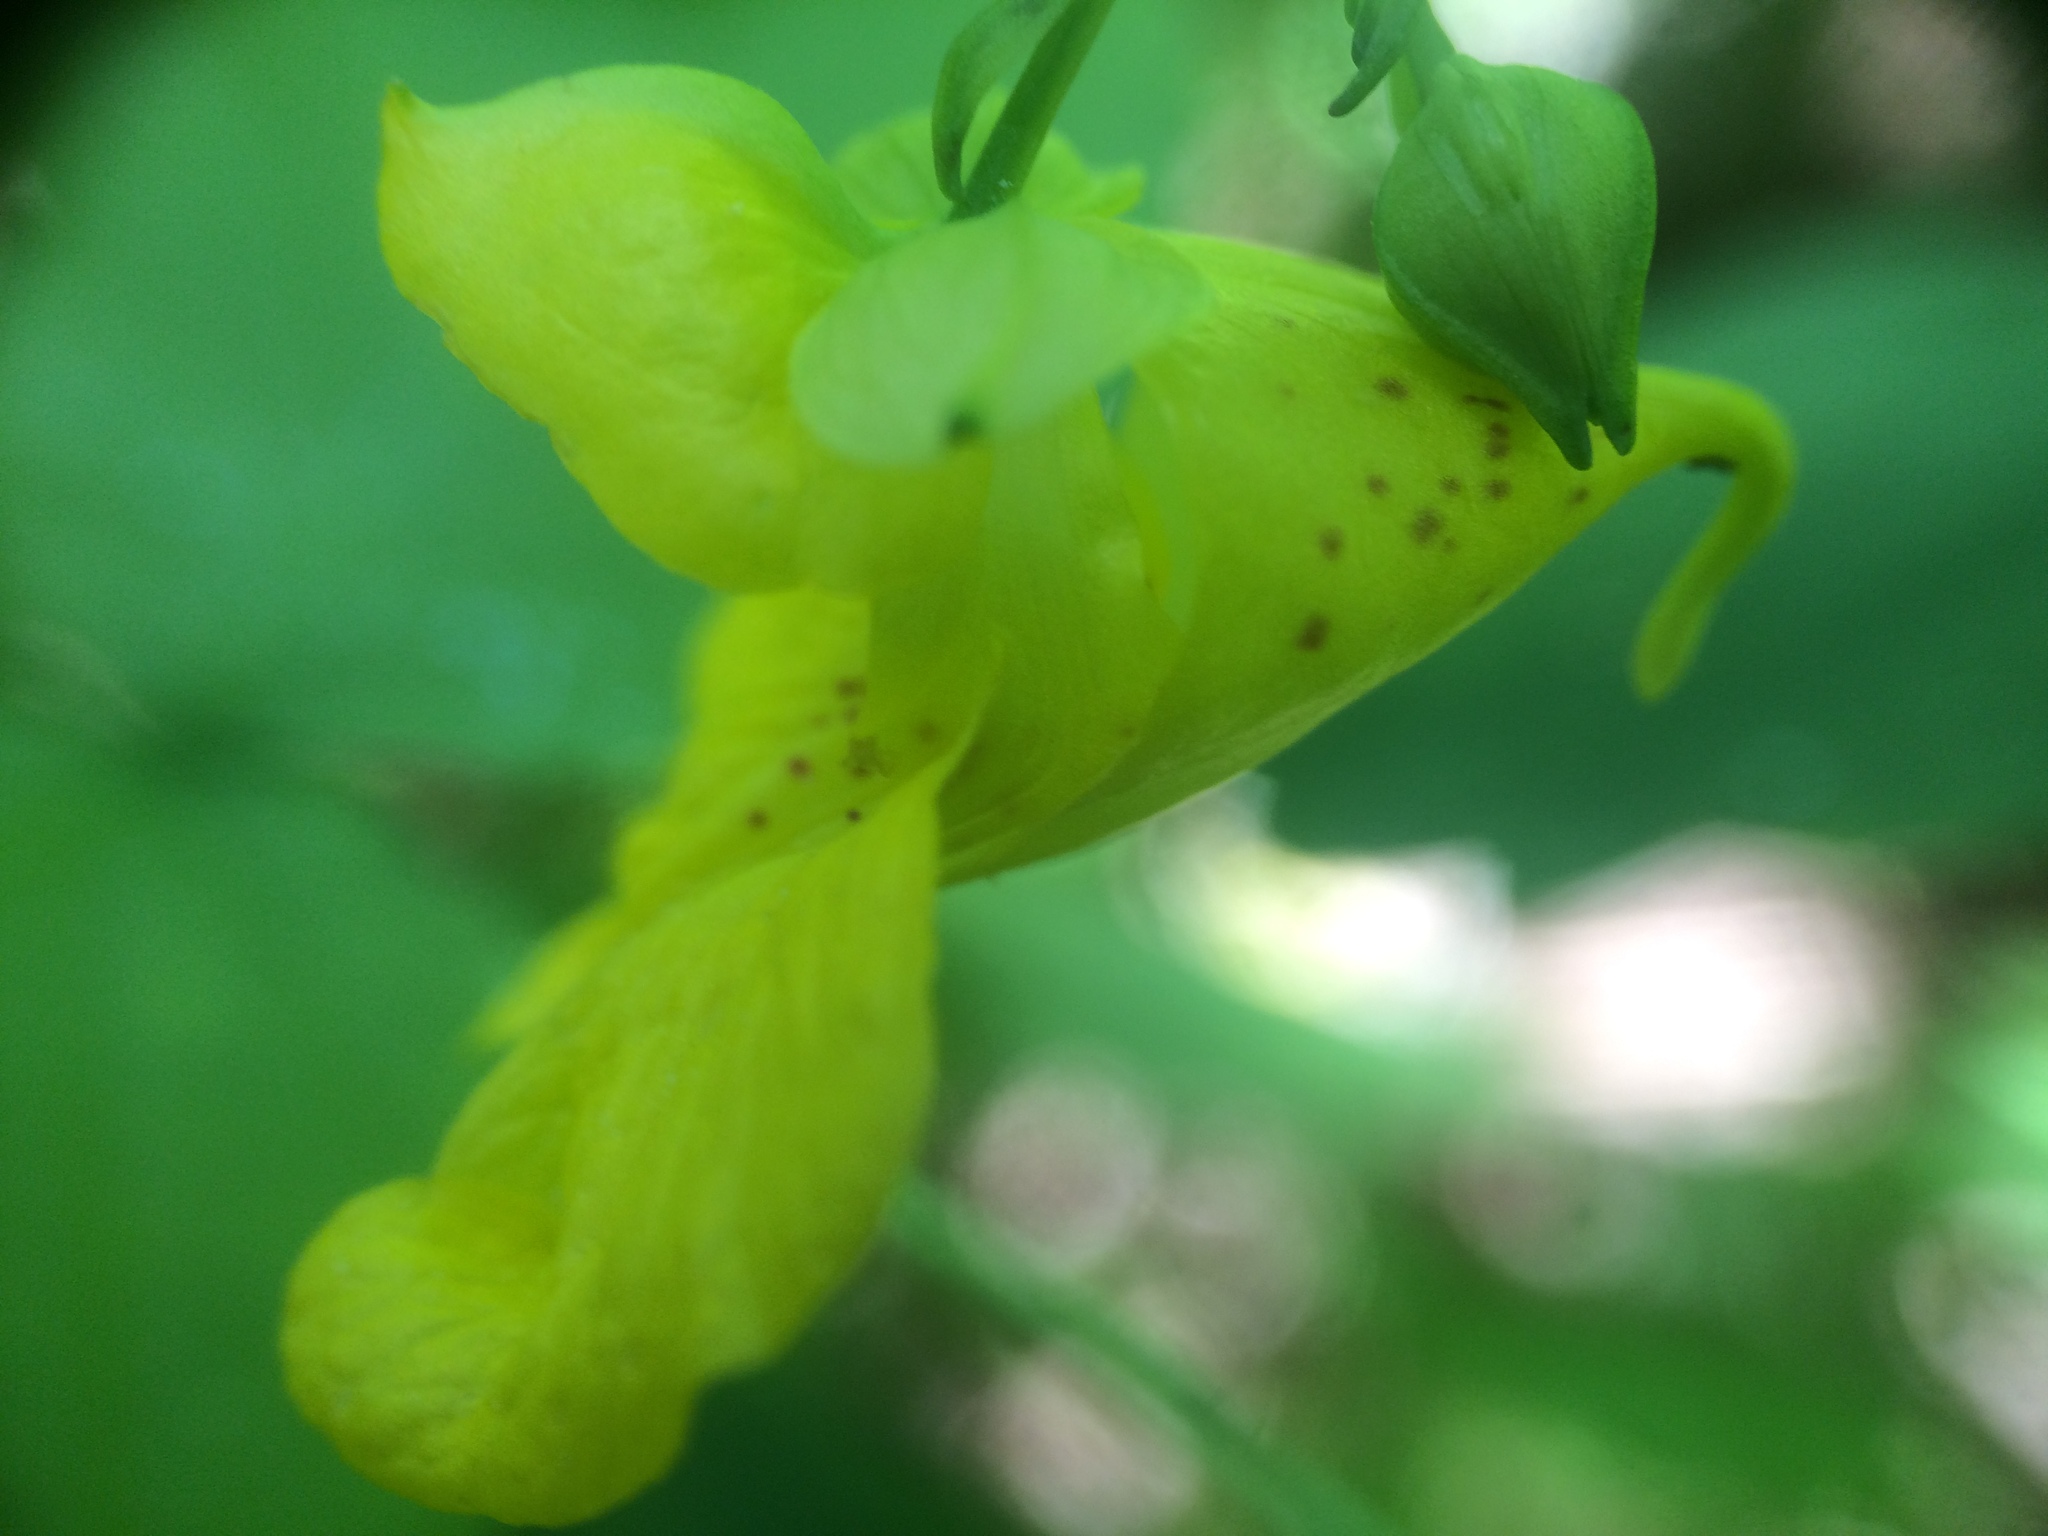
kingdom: Plantae
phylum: Tracheophyta
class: Magnoliopsida
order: Ericales
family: Balsaminaceae
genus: Impatiens
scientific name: Impatiens pallida
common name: Pale snapweed
